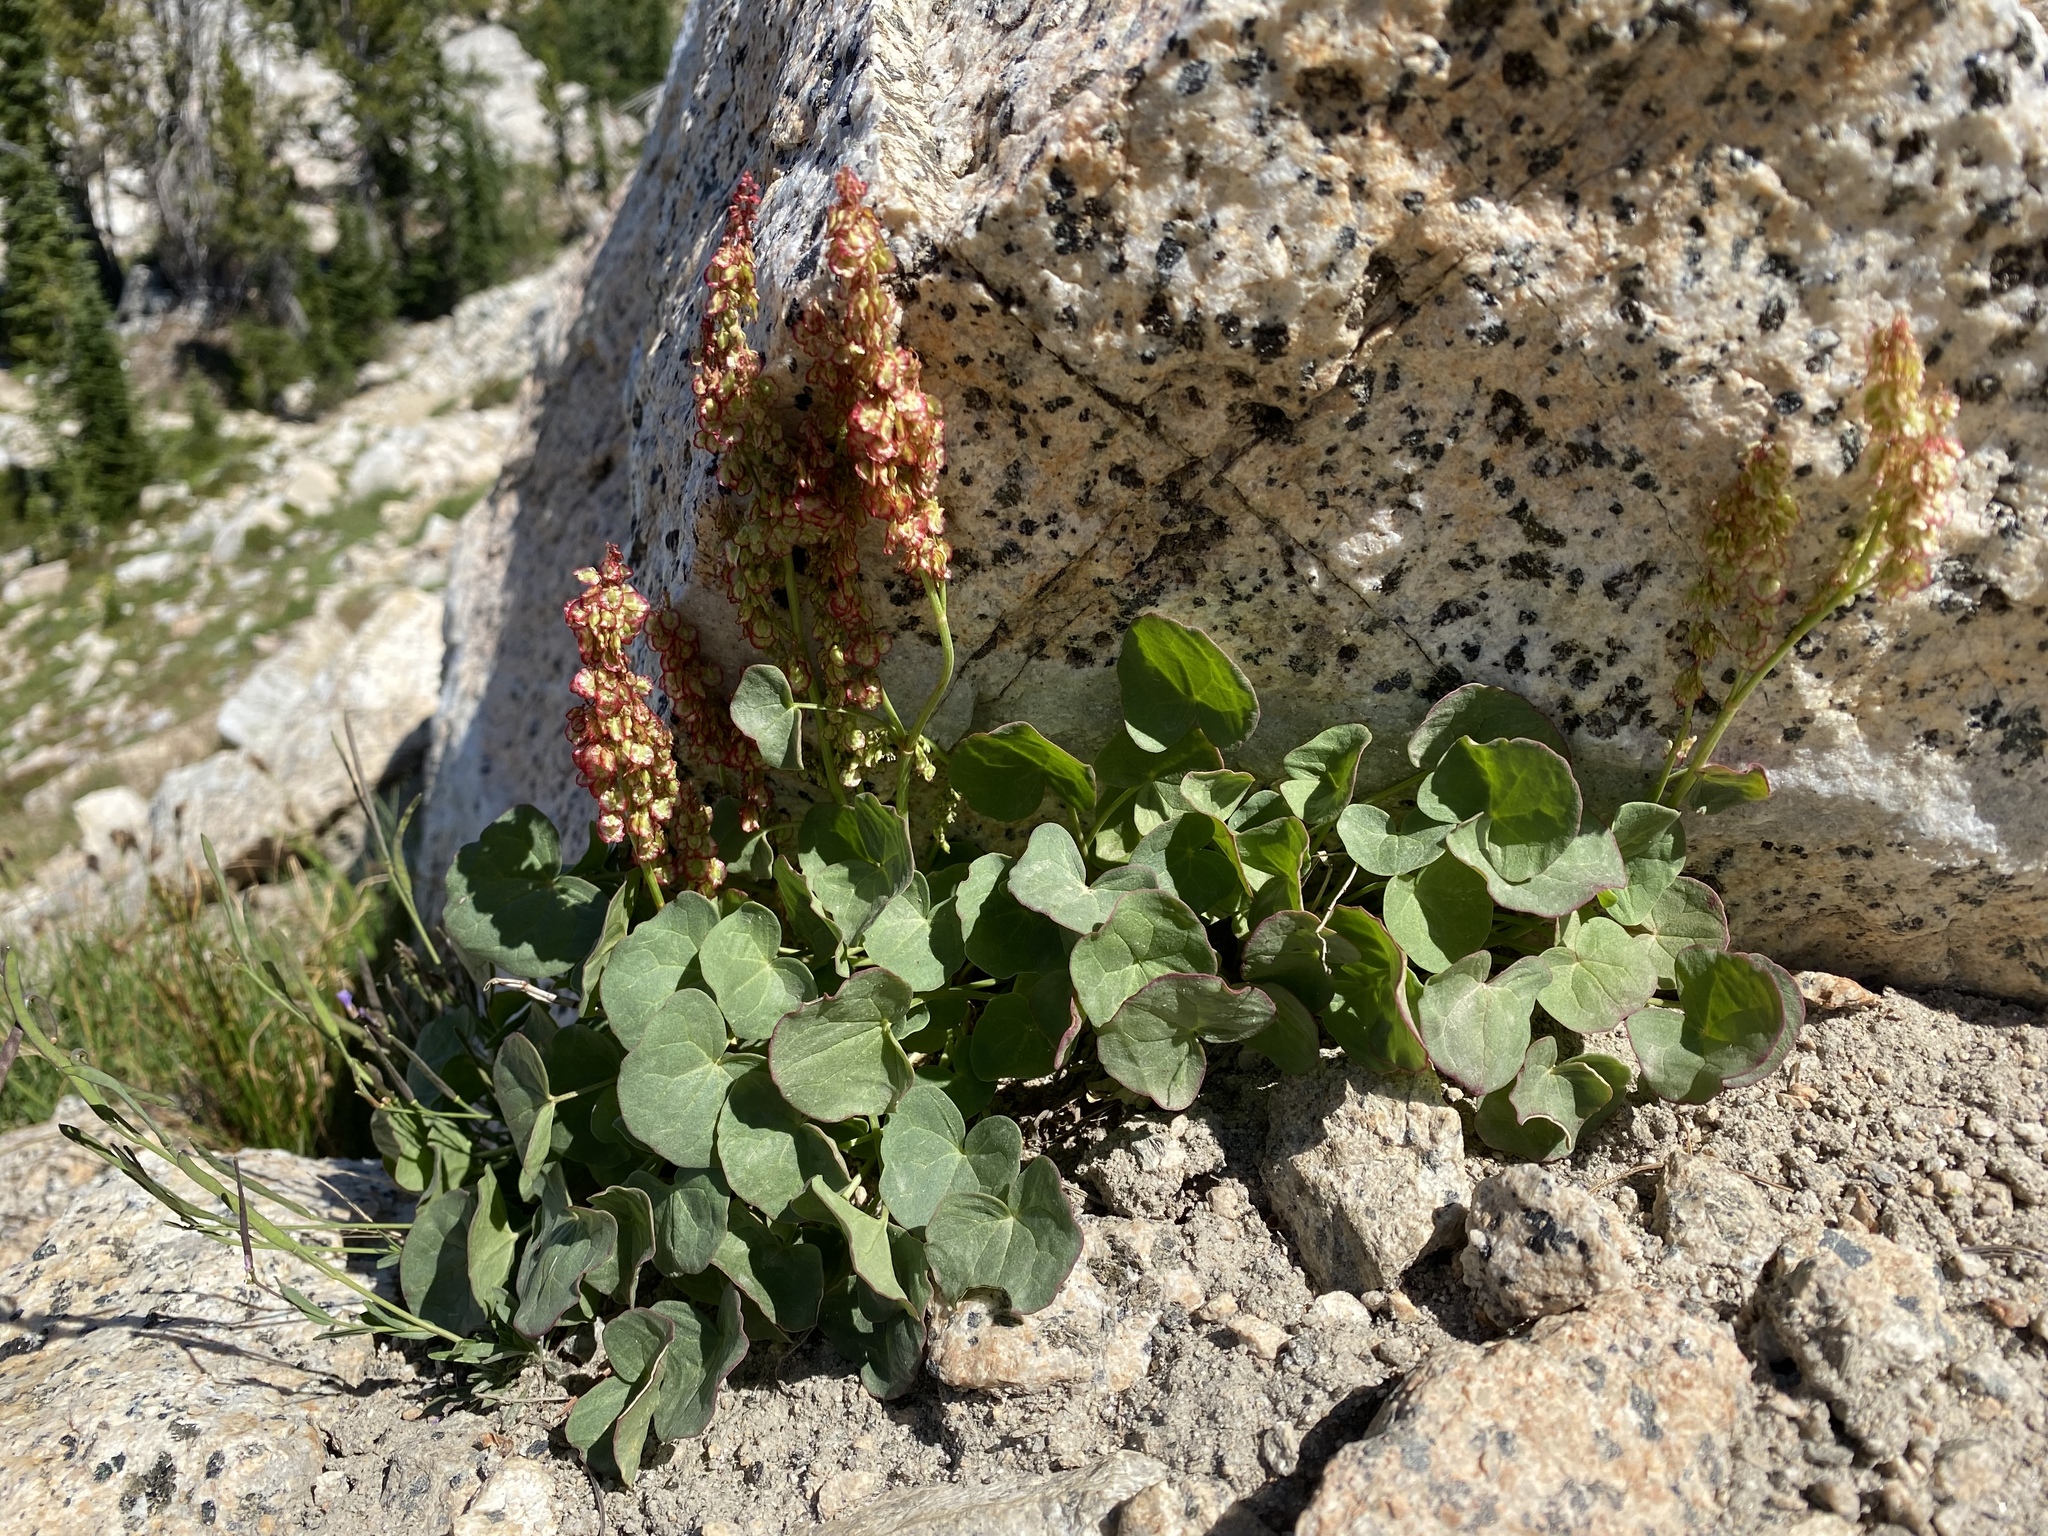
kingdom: Plantae
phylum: Tracheophyta
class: Magnoliopsida
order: Caryophyllales
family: Polygonaceae
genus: Oxyria
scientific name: Oxyria digyna
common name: Alpine mountain-sorrel
